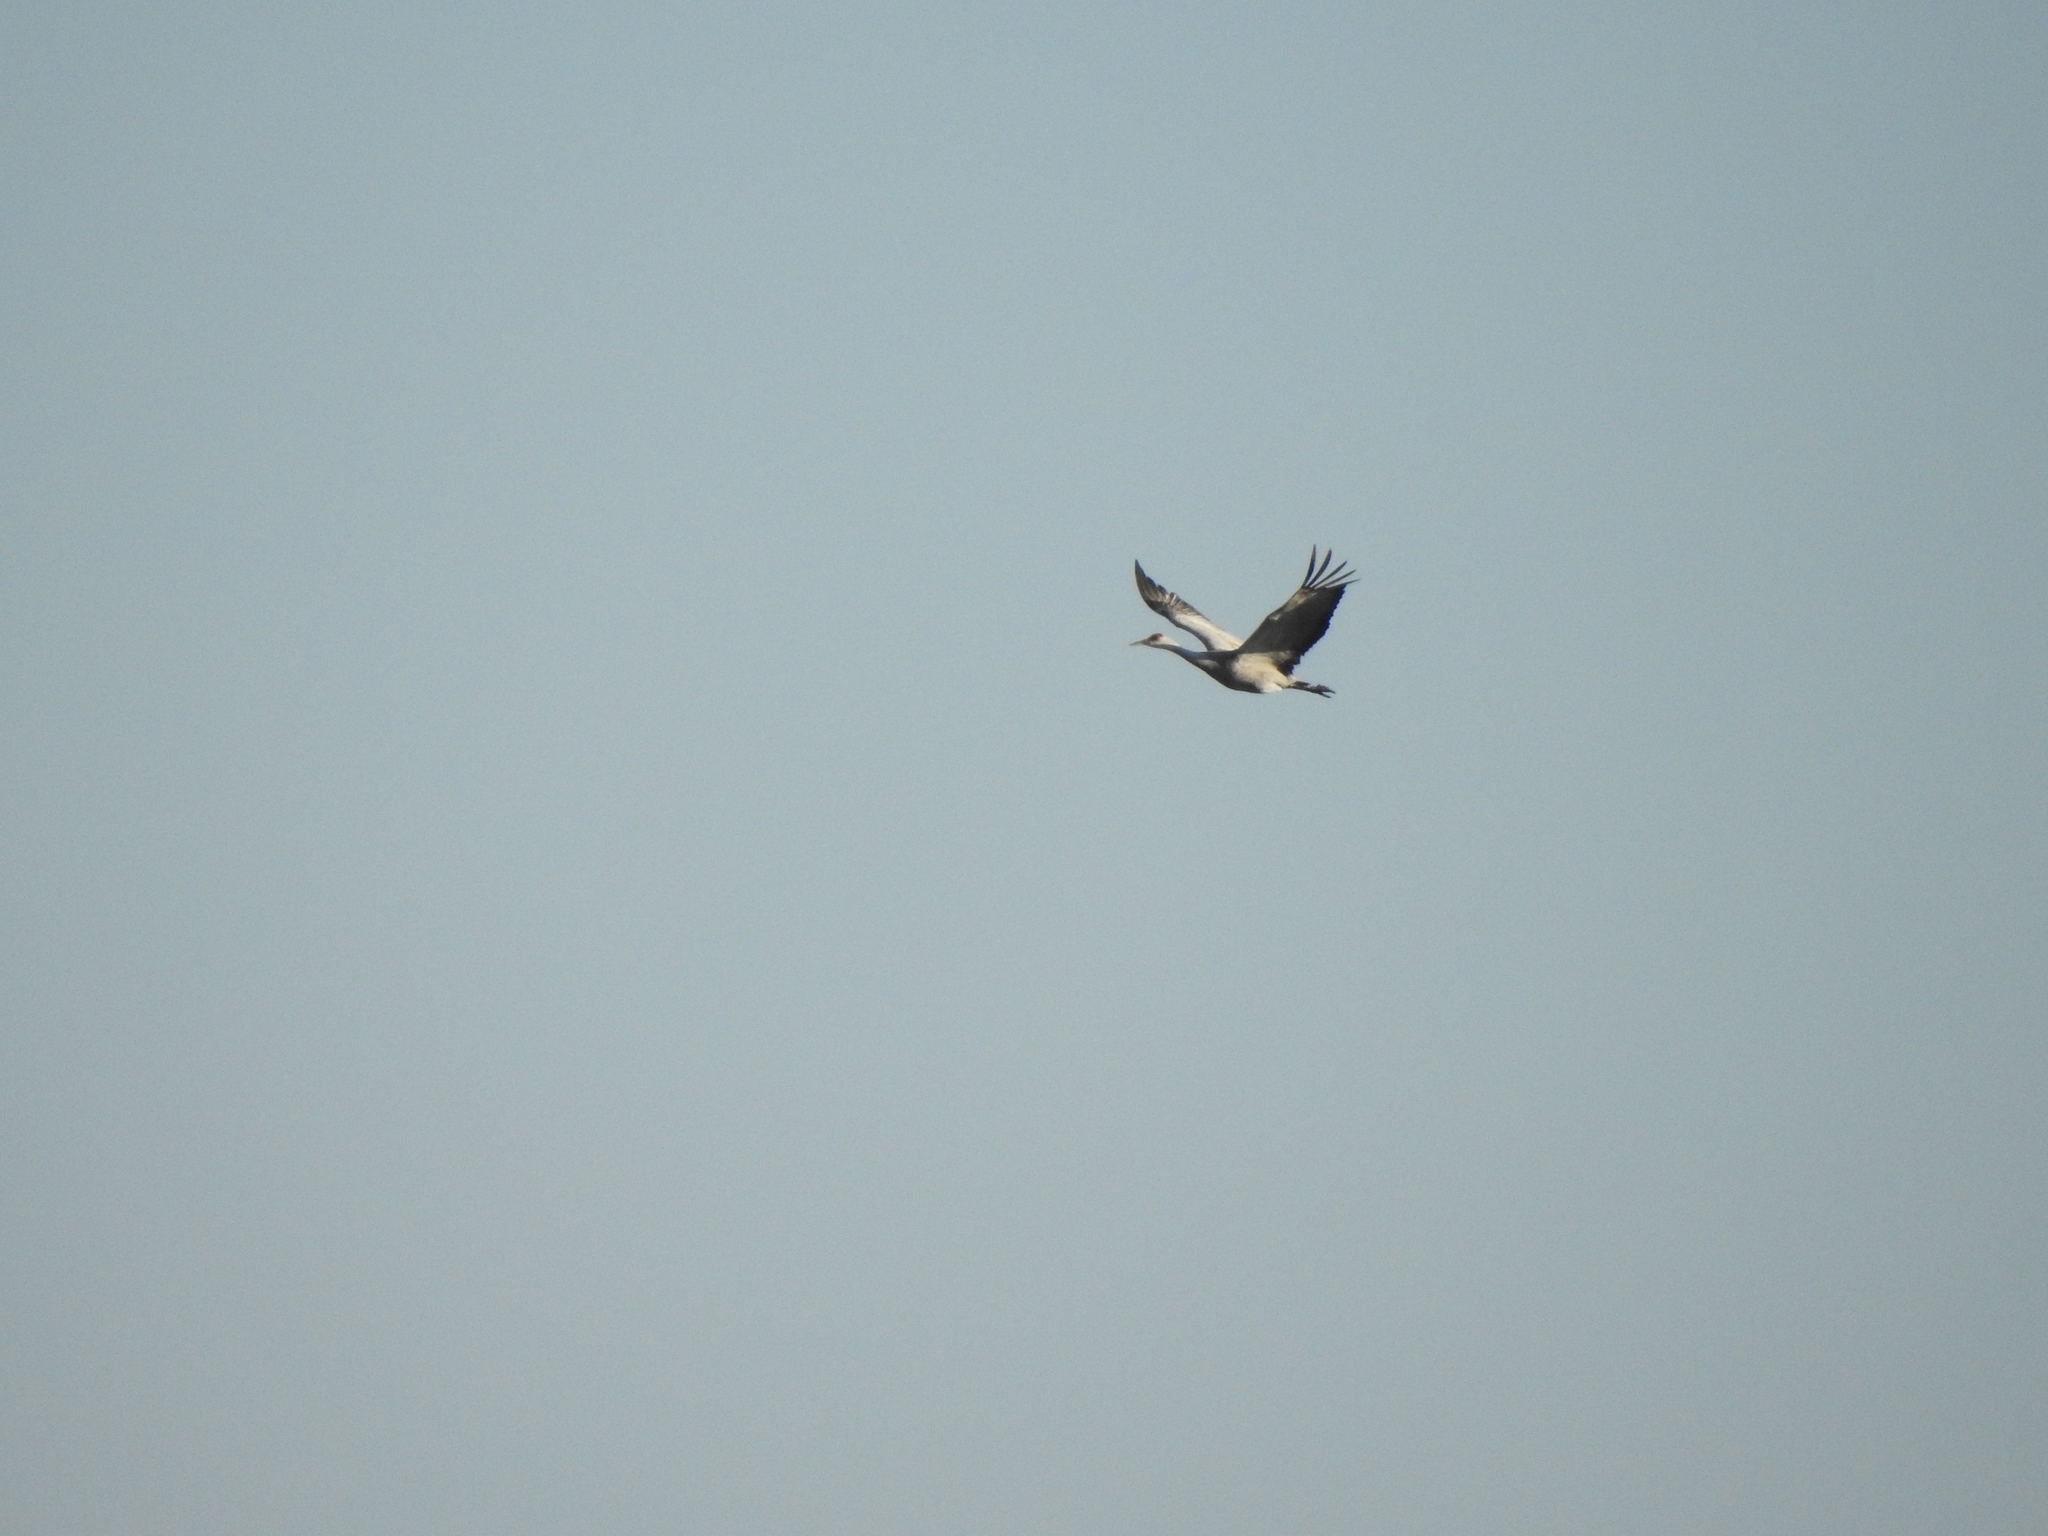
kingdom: Animalia
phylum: Chordata
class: Aves
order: Gruiformes
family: Gruidae
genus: Grus
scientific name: Grus canadensis
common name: Sandhill crane
